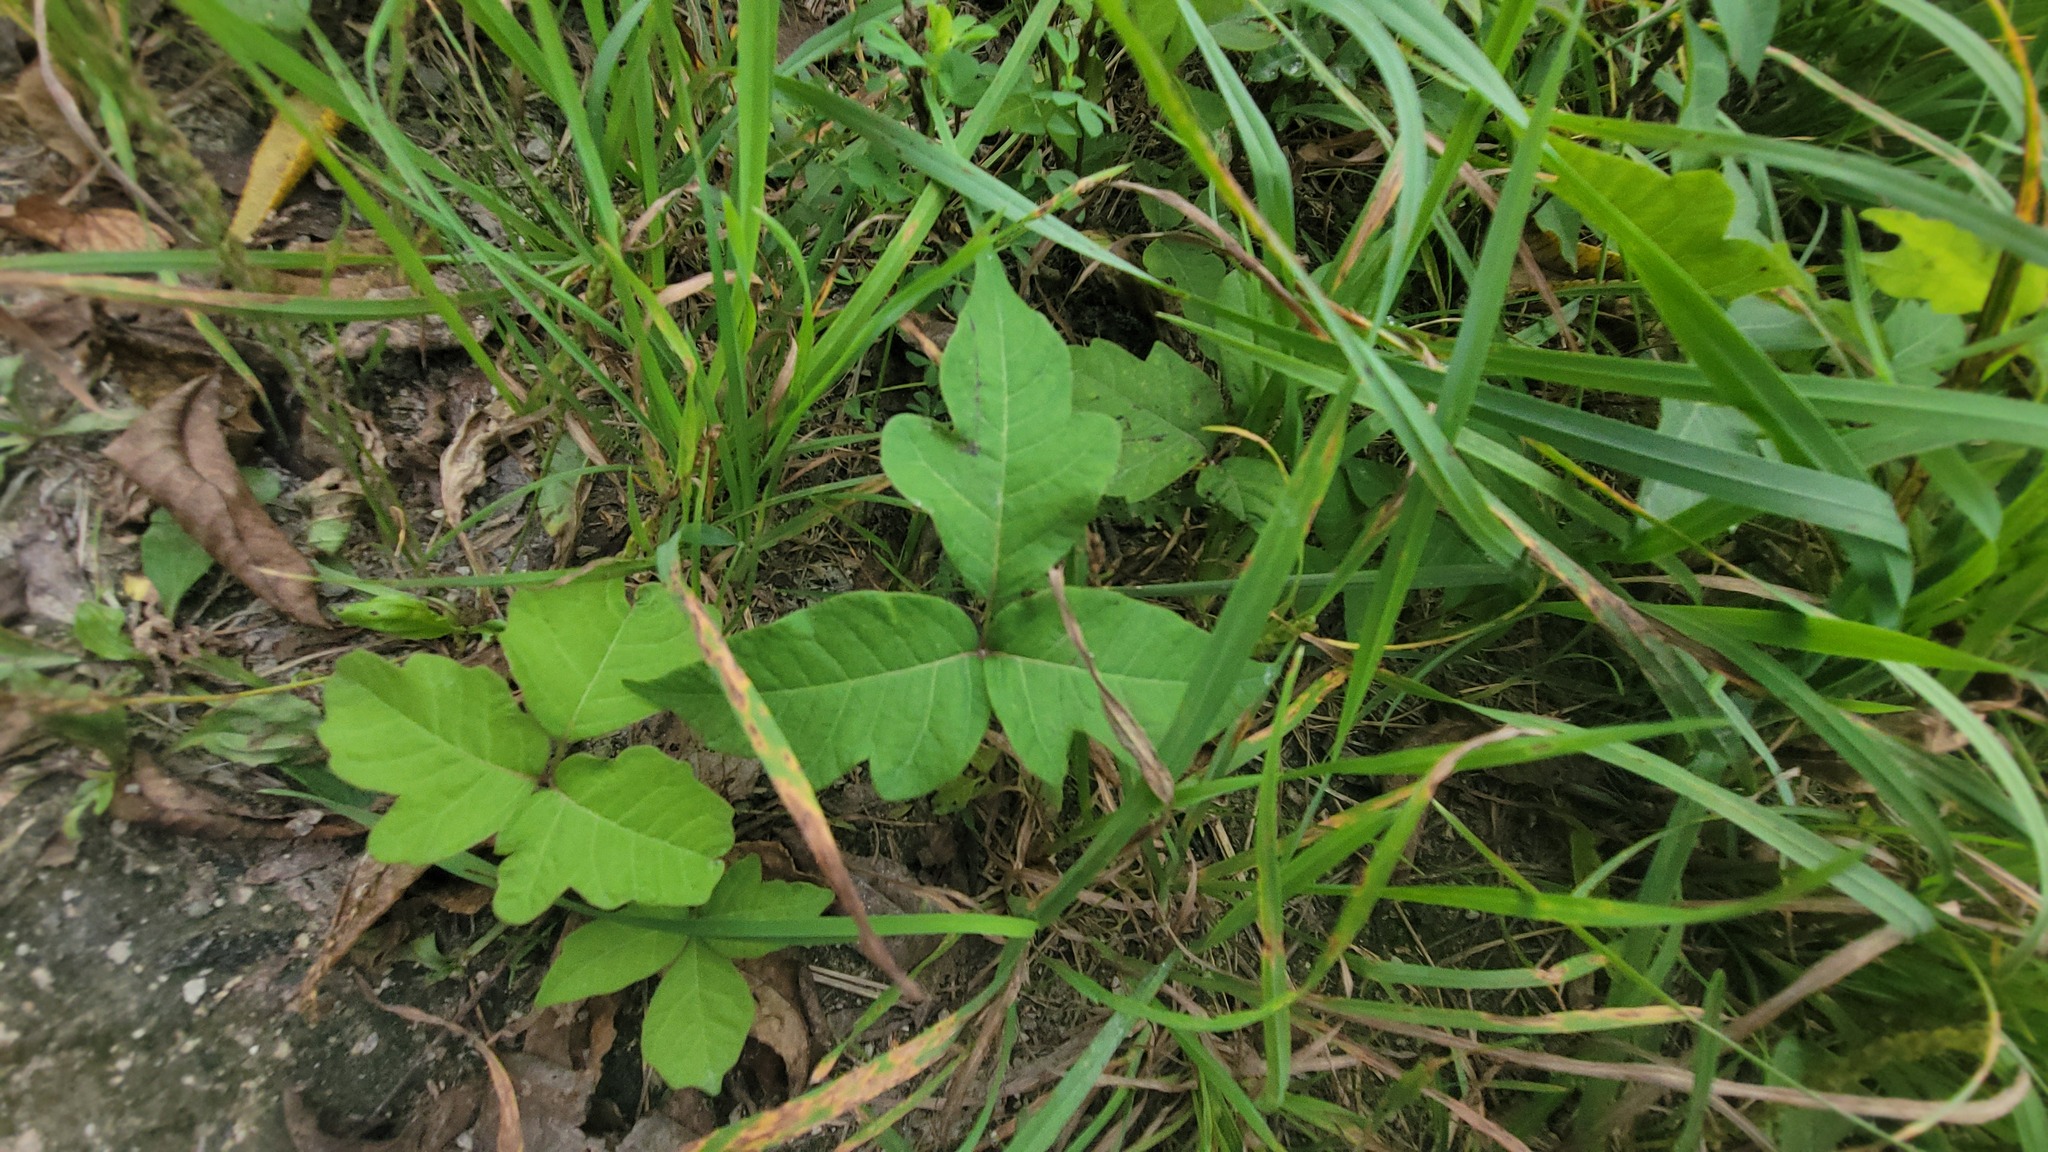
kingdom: Plantae
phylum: Tracheophyta
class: Magnoliopsida
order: Sapindales
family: Anacardiaceae
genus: Toxicodendron
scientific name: Toxicodendron radicans
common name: Poison ivy
